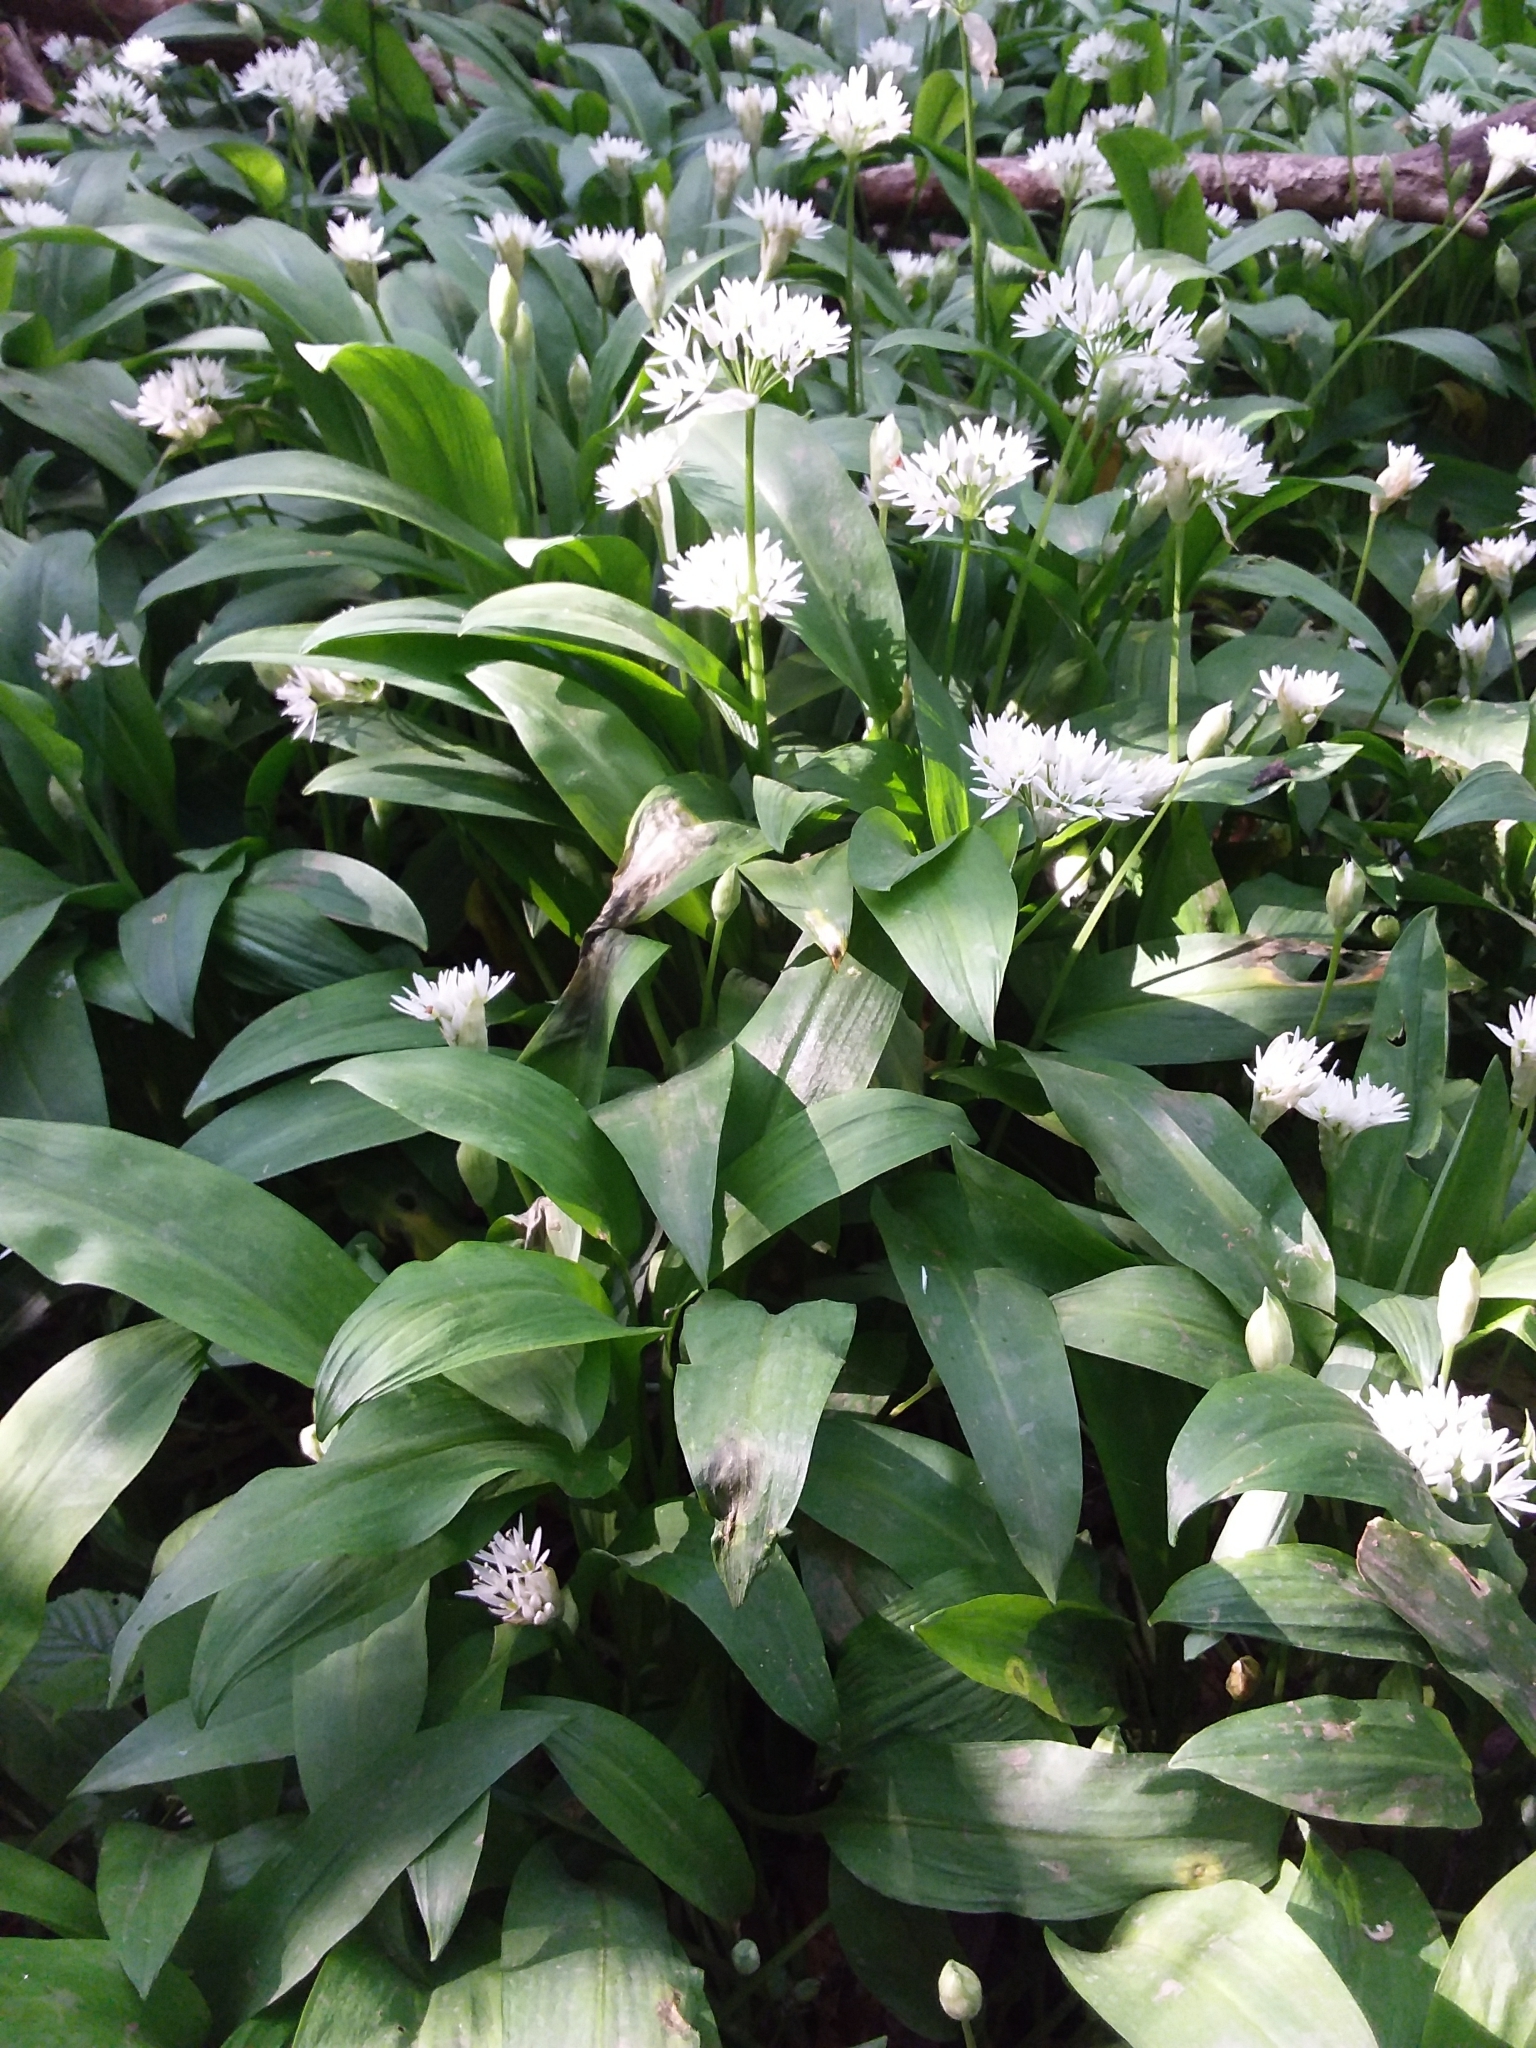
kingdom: Plantae
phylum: Tracheophyta
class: Liliopsida
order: Asparagales
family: Amaryllidaceae
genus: Allium
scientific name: Allium ursinum
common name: Ramsons
